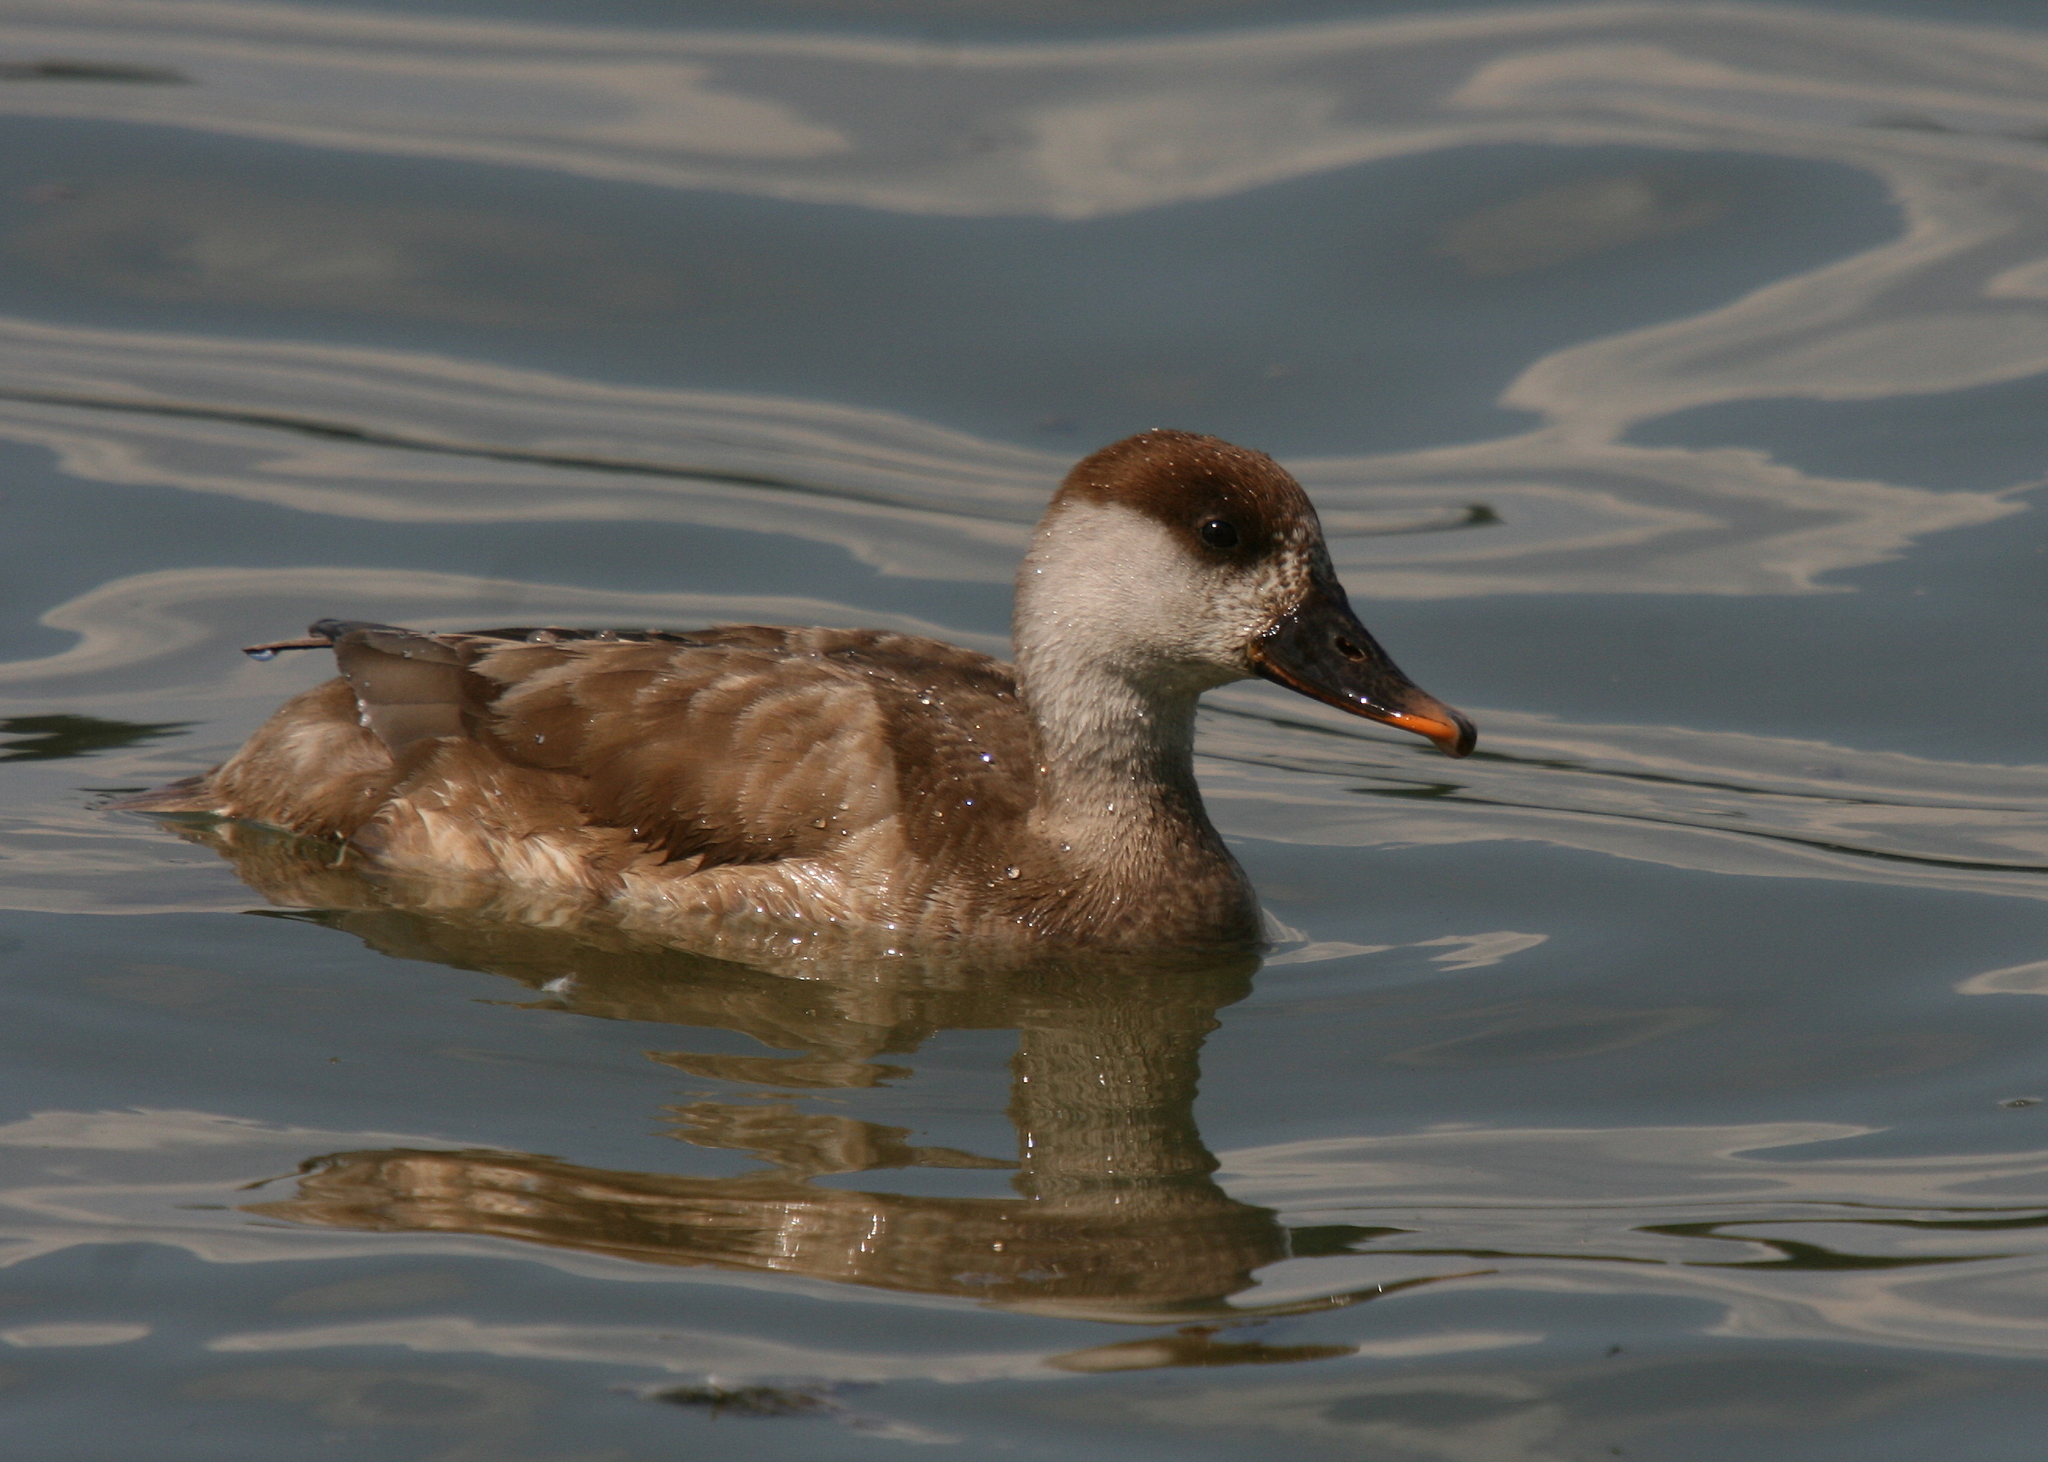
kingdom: Animalia
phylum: Chordata
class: Aves
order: Anseriformes
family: Anatidae
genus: Netta
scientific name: Netta rufina
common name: Red-crested pochard
